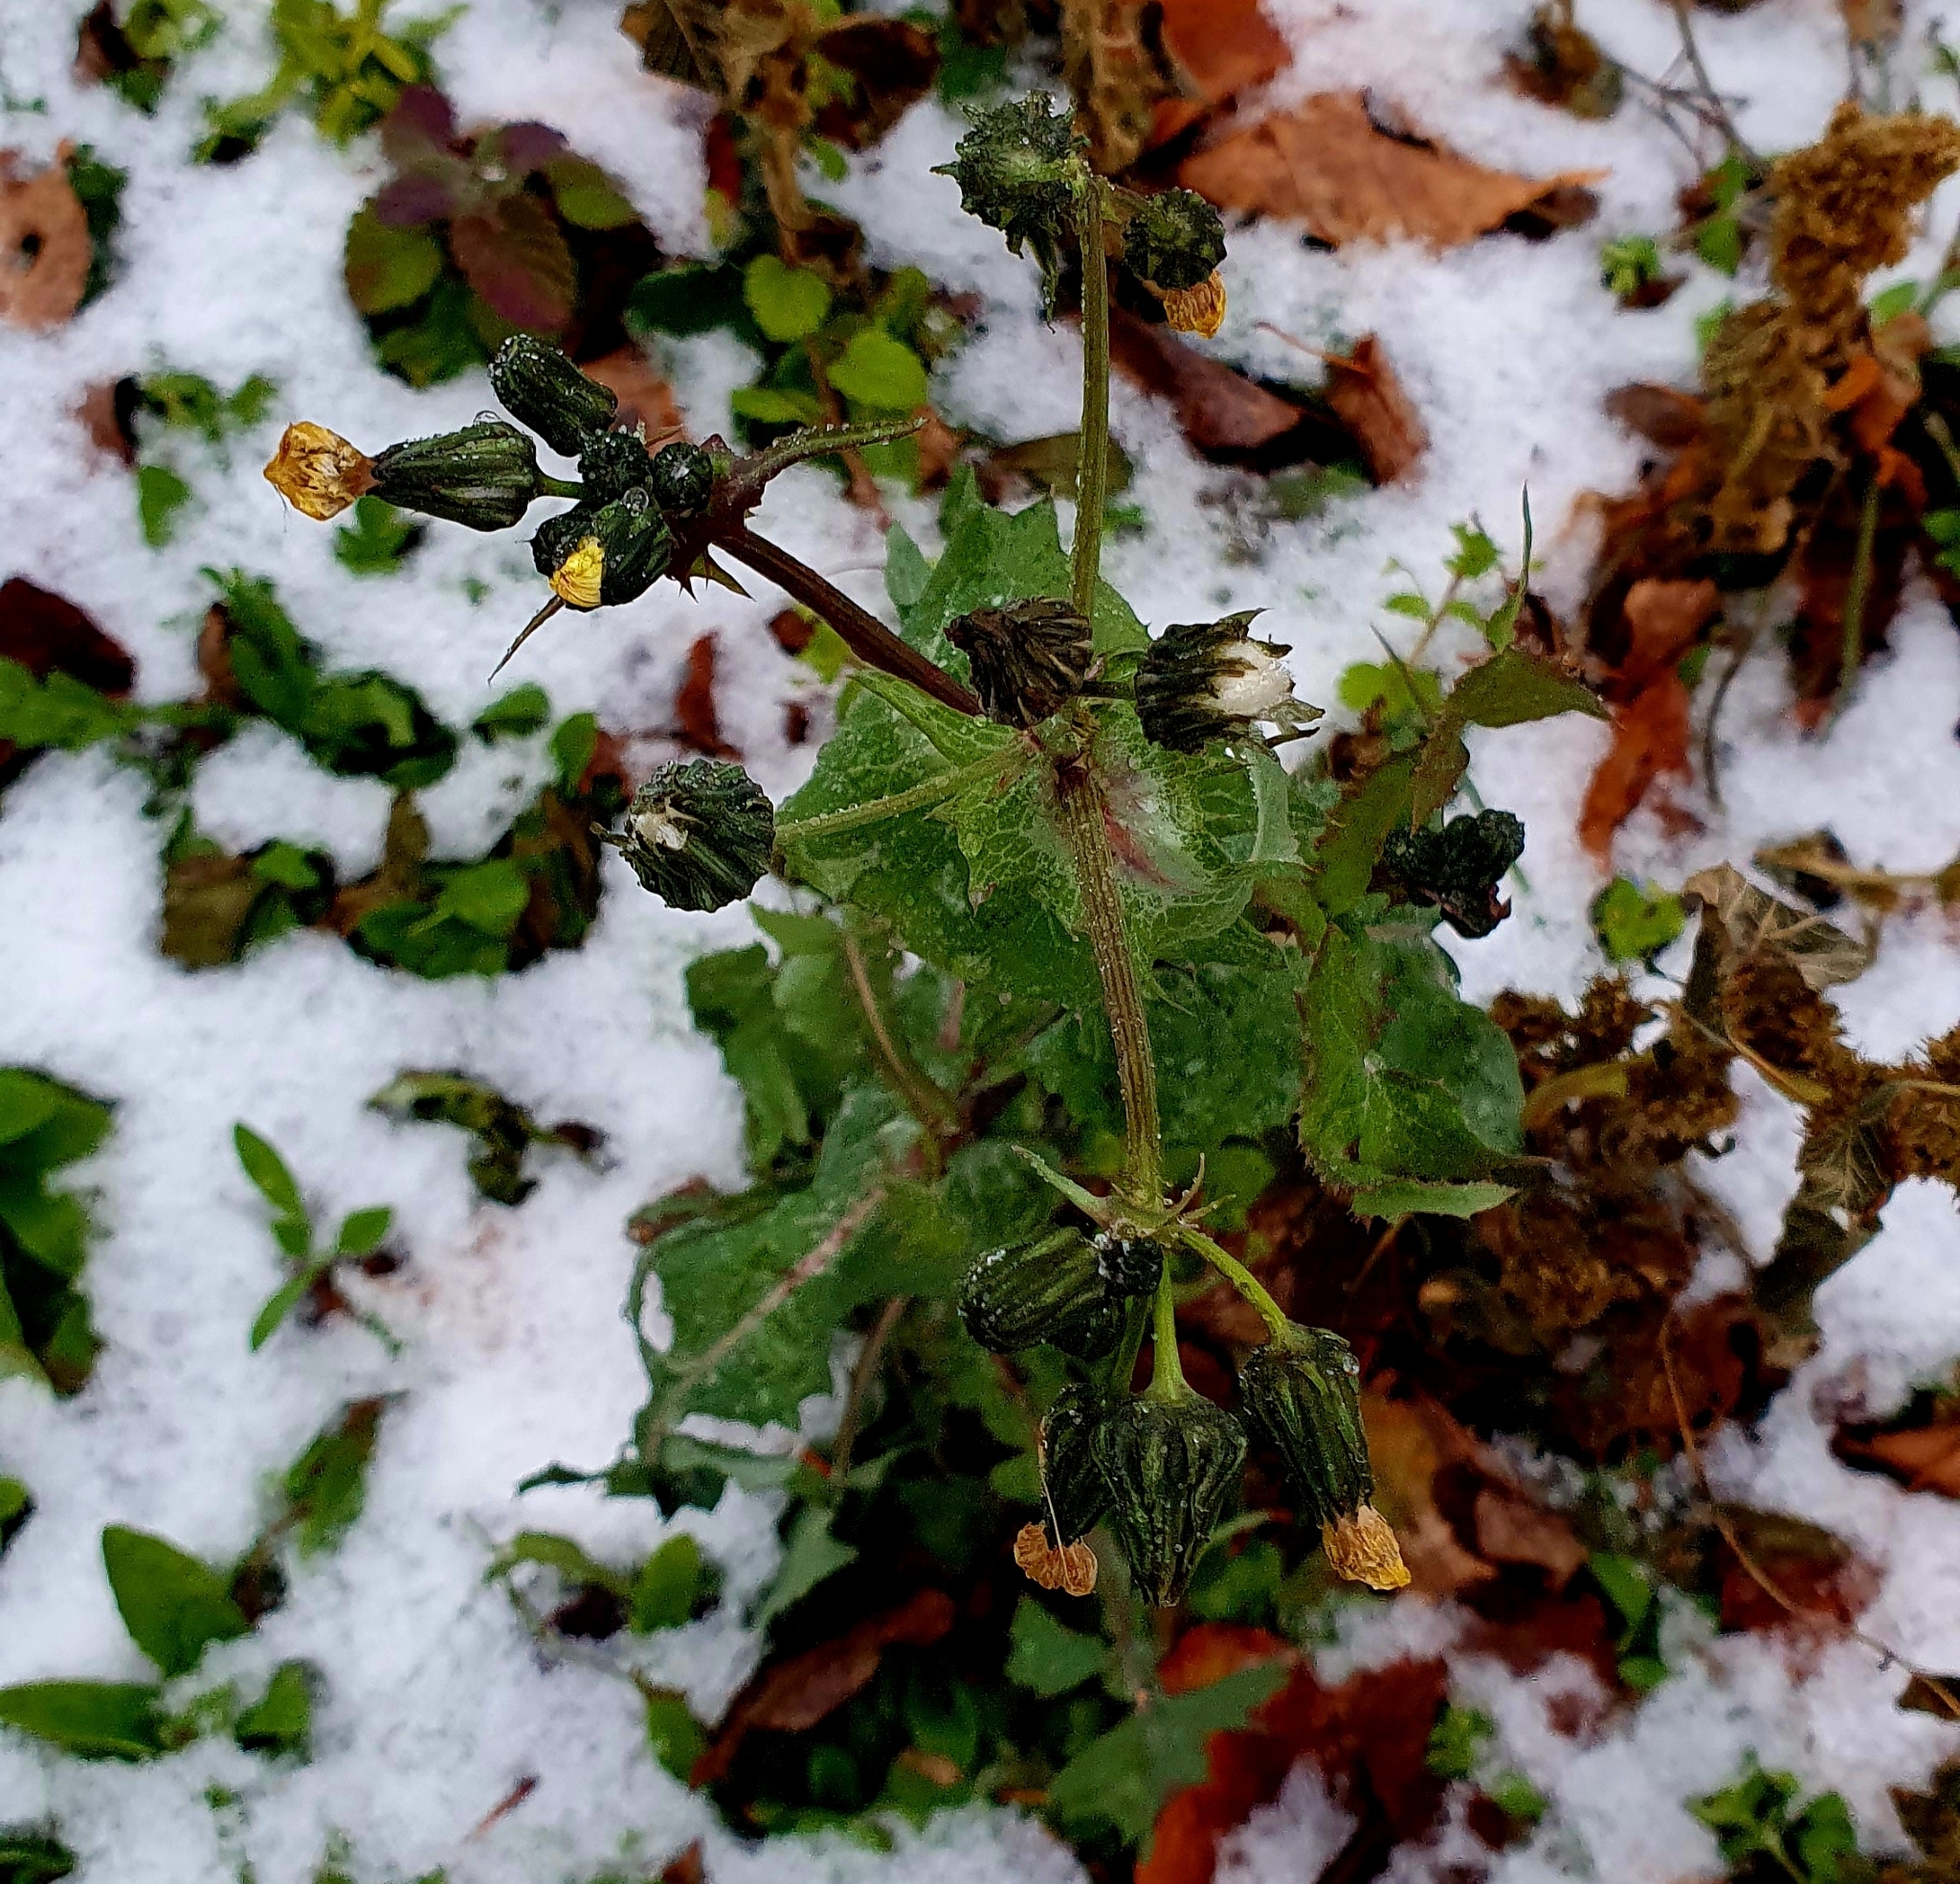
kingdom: Plantae
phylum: Tracheophyta
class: Magnoliopsida
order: Asterales
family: Asteraceae
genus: Sonchus
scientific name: Sonchus oleraceus
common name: Common sowthistle
